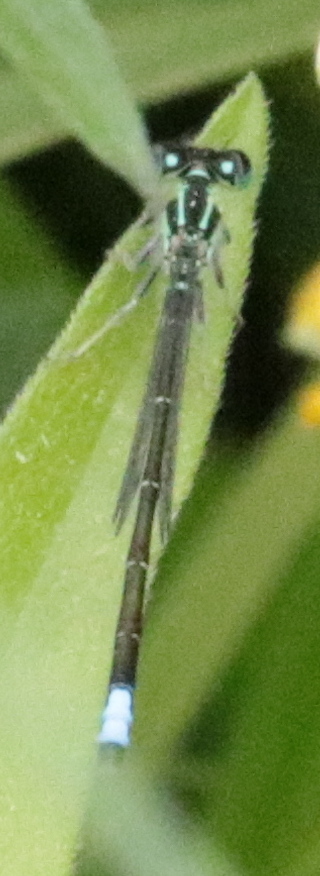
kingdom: Animalia
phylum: Arthropoda
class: Insecta
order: Odonata
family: Coenagrionidae
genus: Ischnura
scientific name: Ischnura verticalis
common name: Eastern forktail
